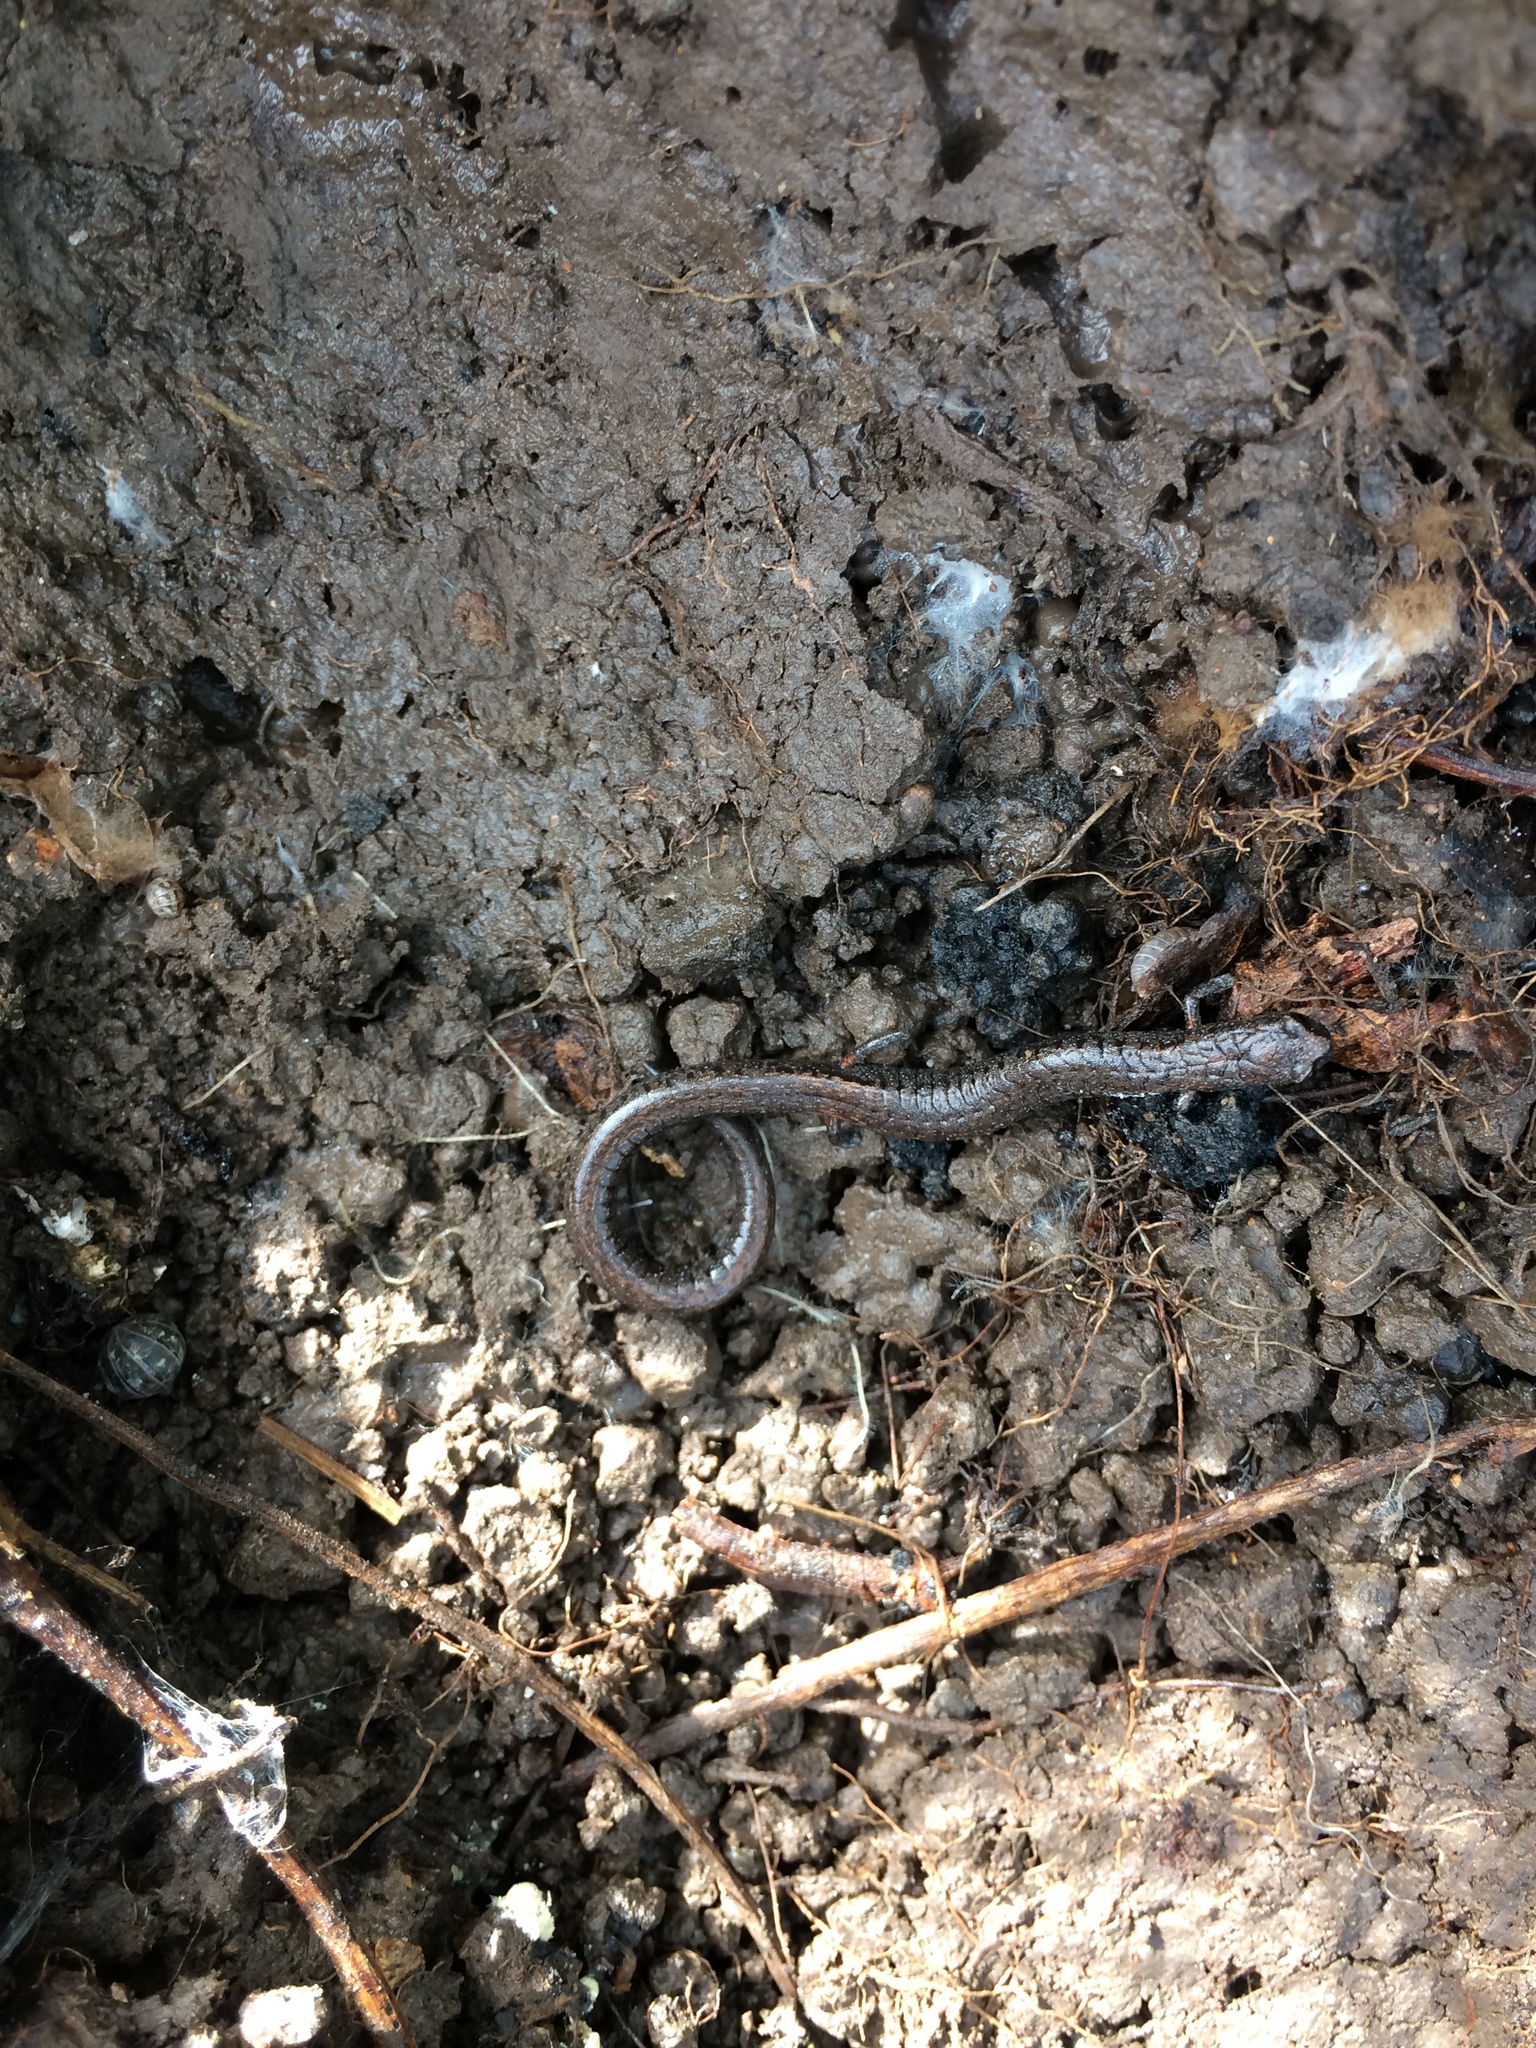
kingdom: Animalia
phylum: Chordata
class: Amphibia
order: Caudata
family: Plethodontidae
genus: Batrachoseps
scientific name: Batrachoseps attenuatus
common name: California slender salamander
